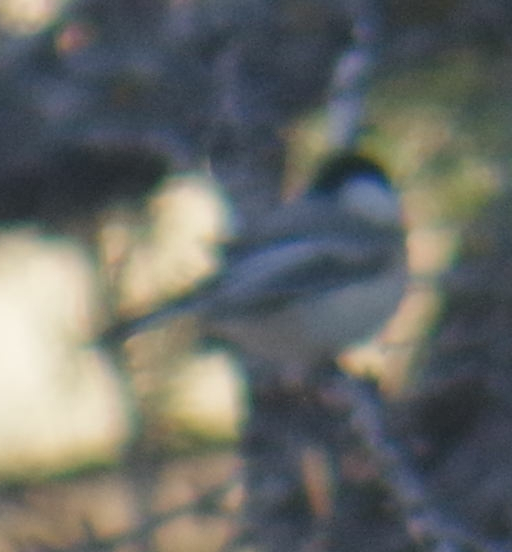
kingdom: Animalia
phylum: Chordata
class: Aves
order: Passeriformes
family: Paridae
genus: Poecile
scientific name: Poecile atricapillus
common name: Black-capped chickadee
